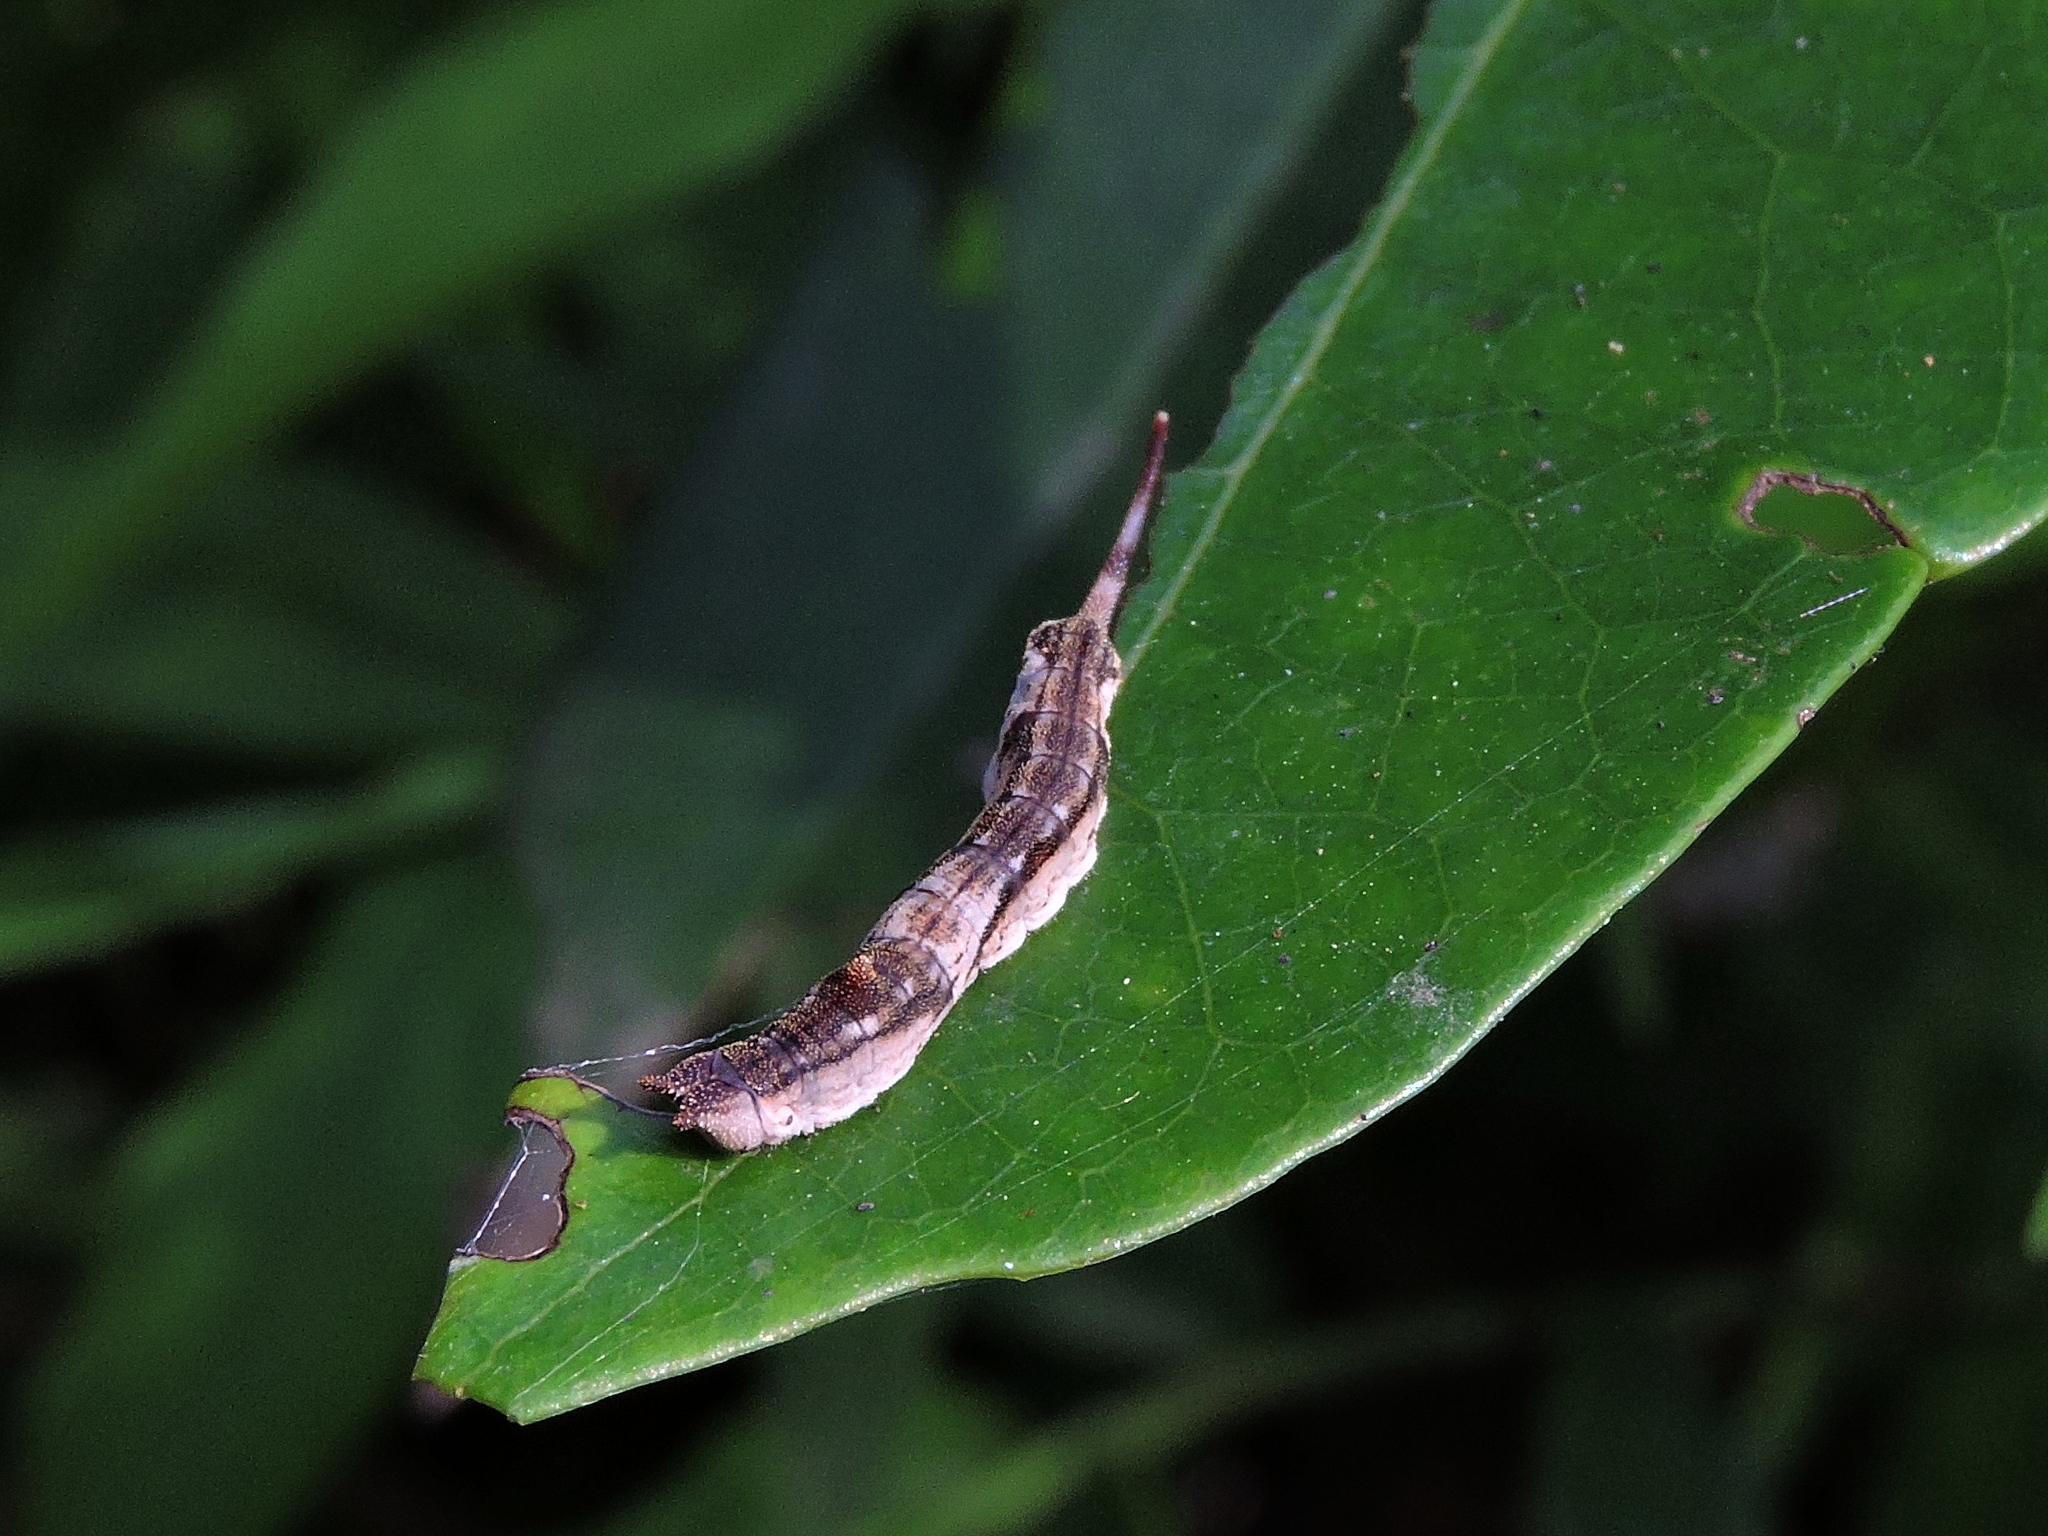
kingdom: Animalia
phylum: Arthropoda
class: Insecta
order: Lepidoptera
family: Drepanidae
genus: Oreta
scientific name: Oreta insignis
